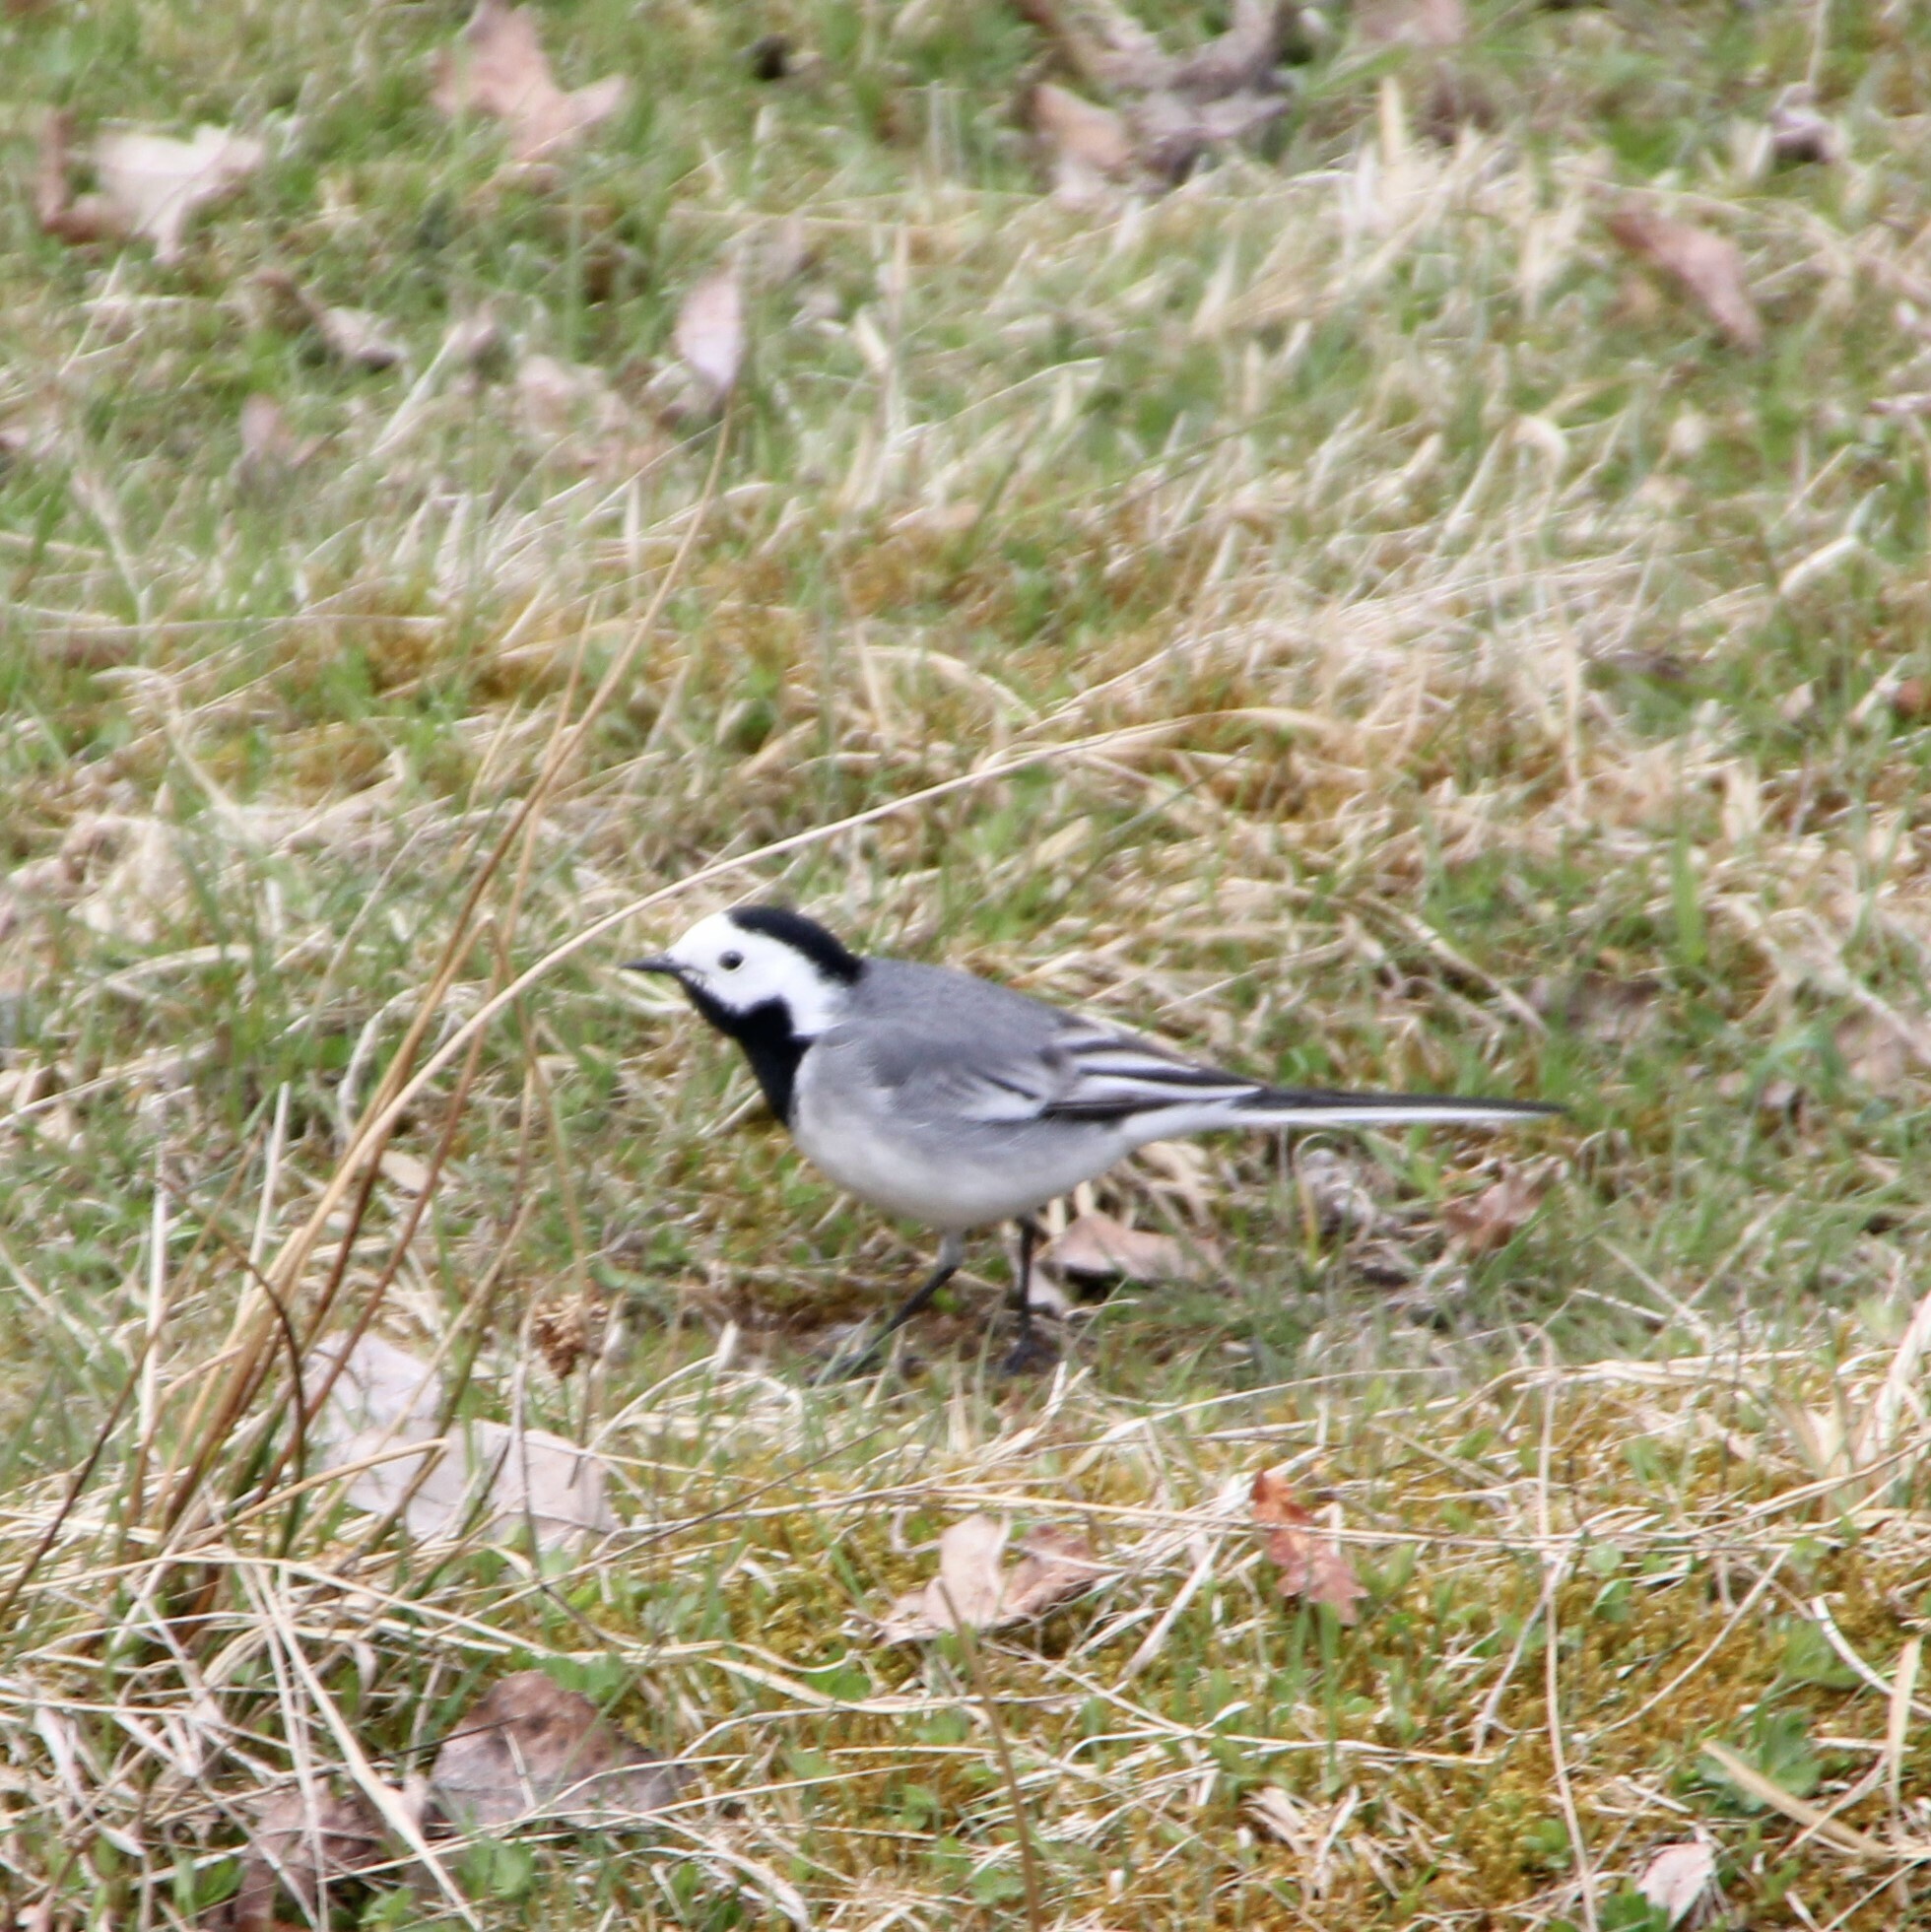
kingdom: Animalia
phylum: Chordata
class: Aves
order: Passeriformes
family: Motacillidae
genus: Motacilla
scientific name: Motacilla alba
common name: White wagtail
